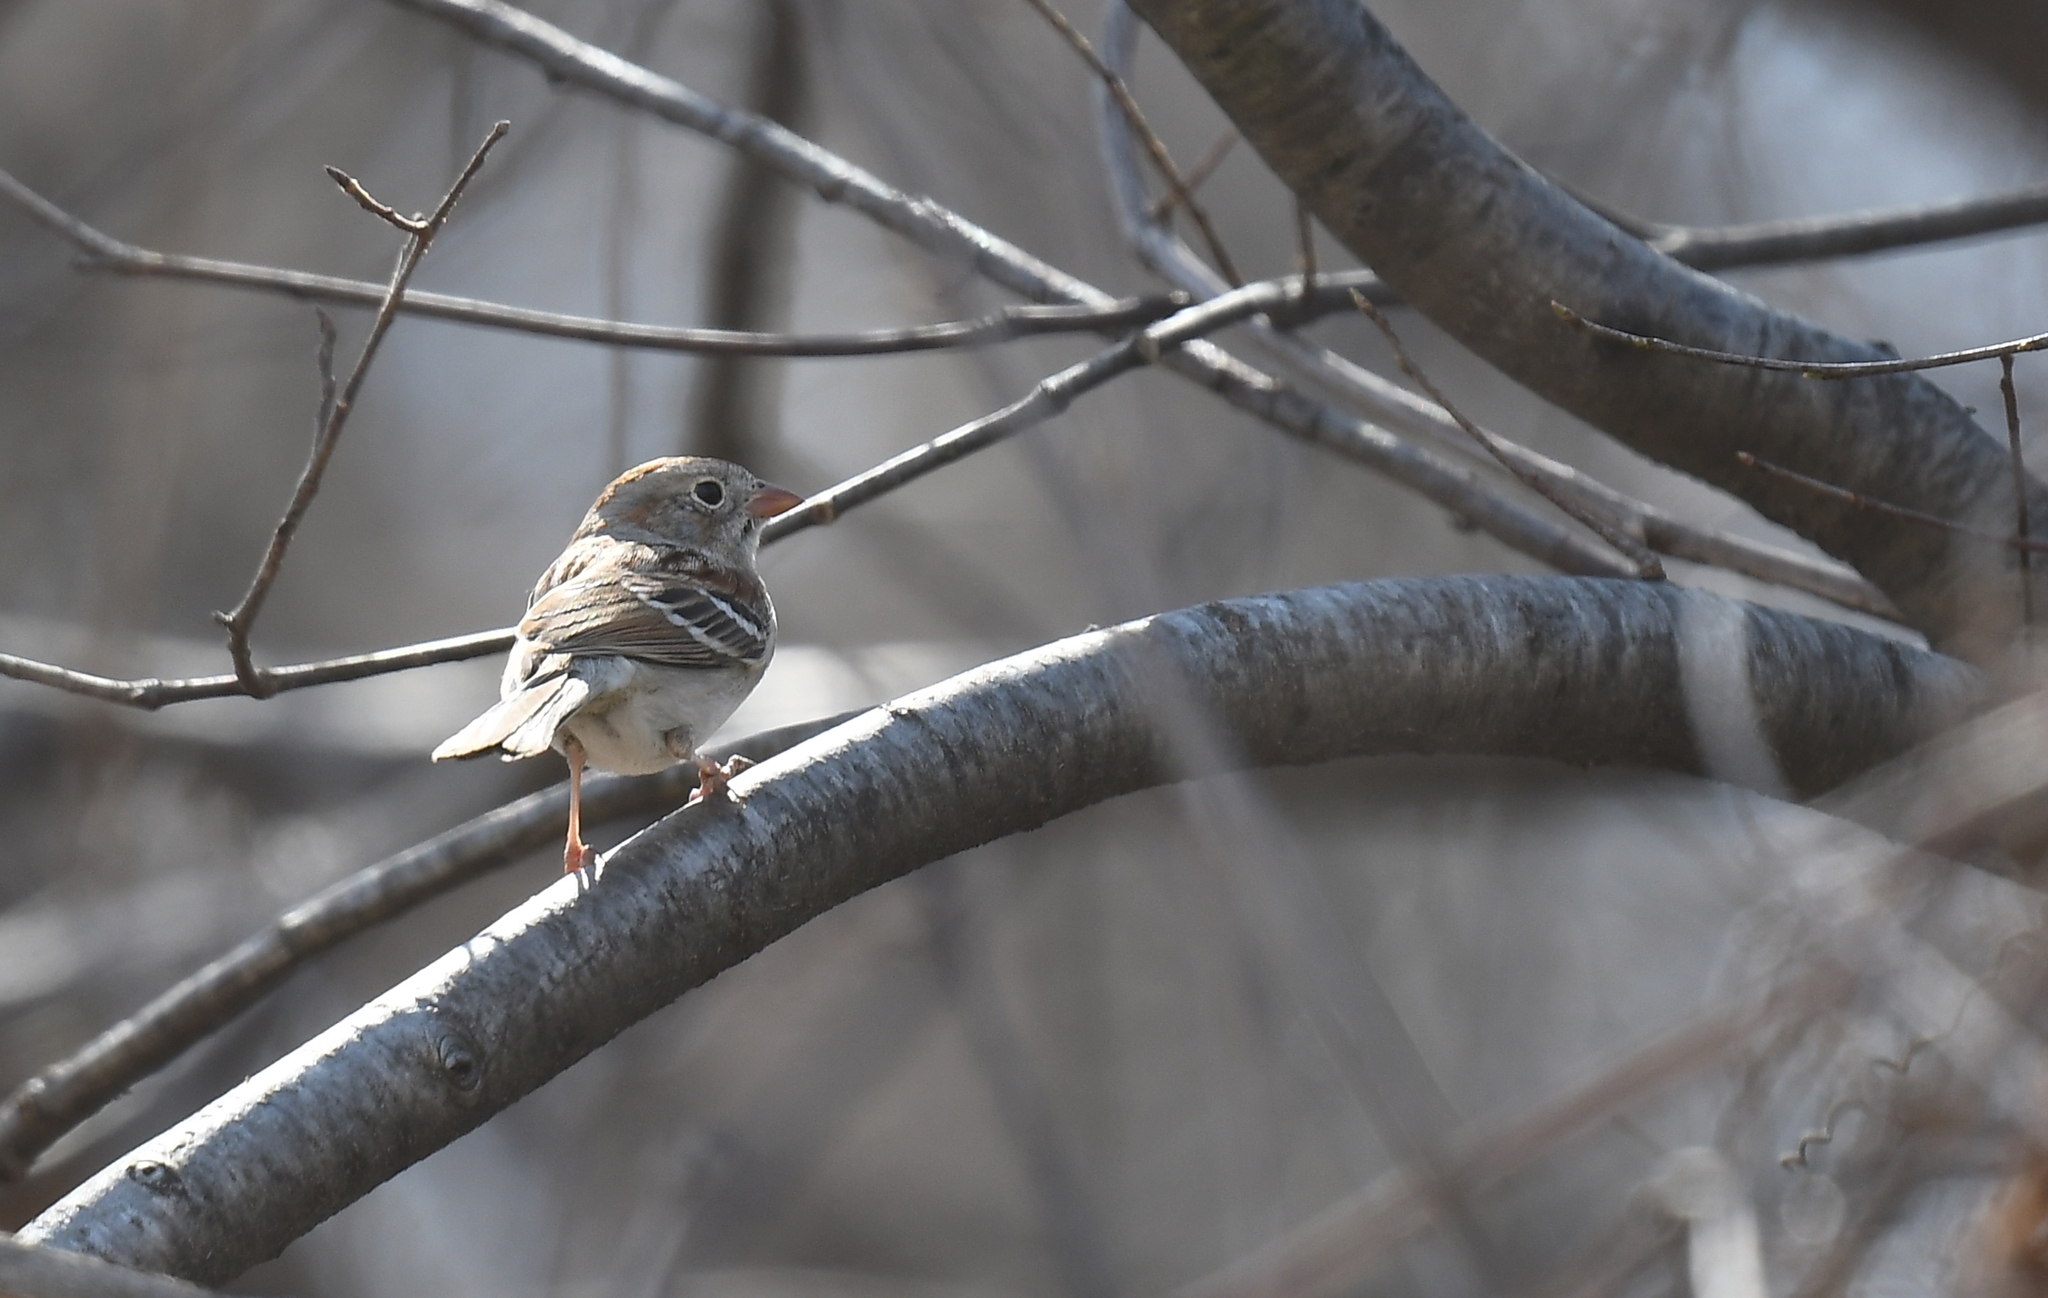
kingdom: Animalia
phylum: Chordata
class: Aves
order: Passeriformes
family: Passerellidae
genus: Spizella
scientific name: Spizella pusilla
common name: Field sparrow
